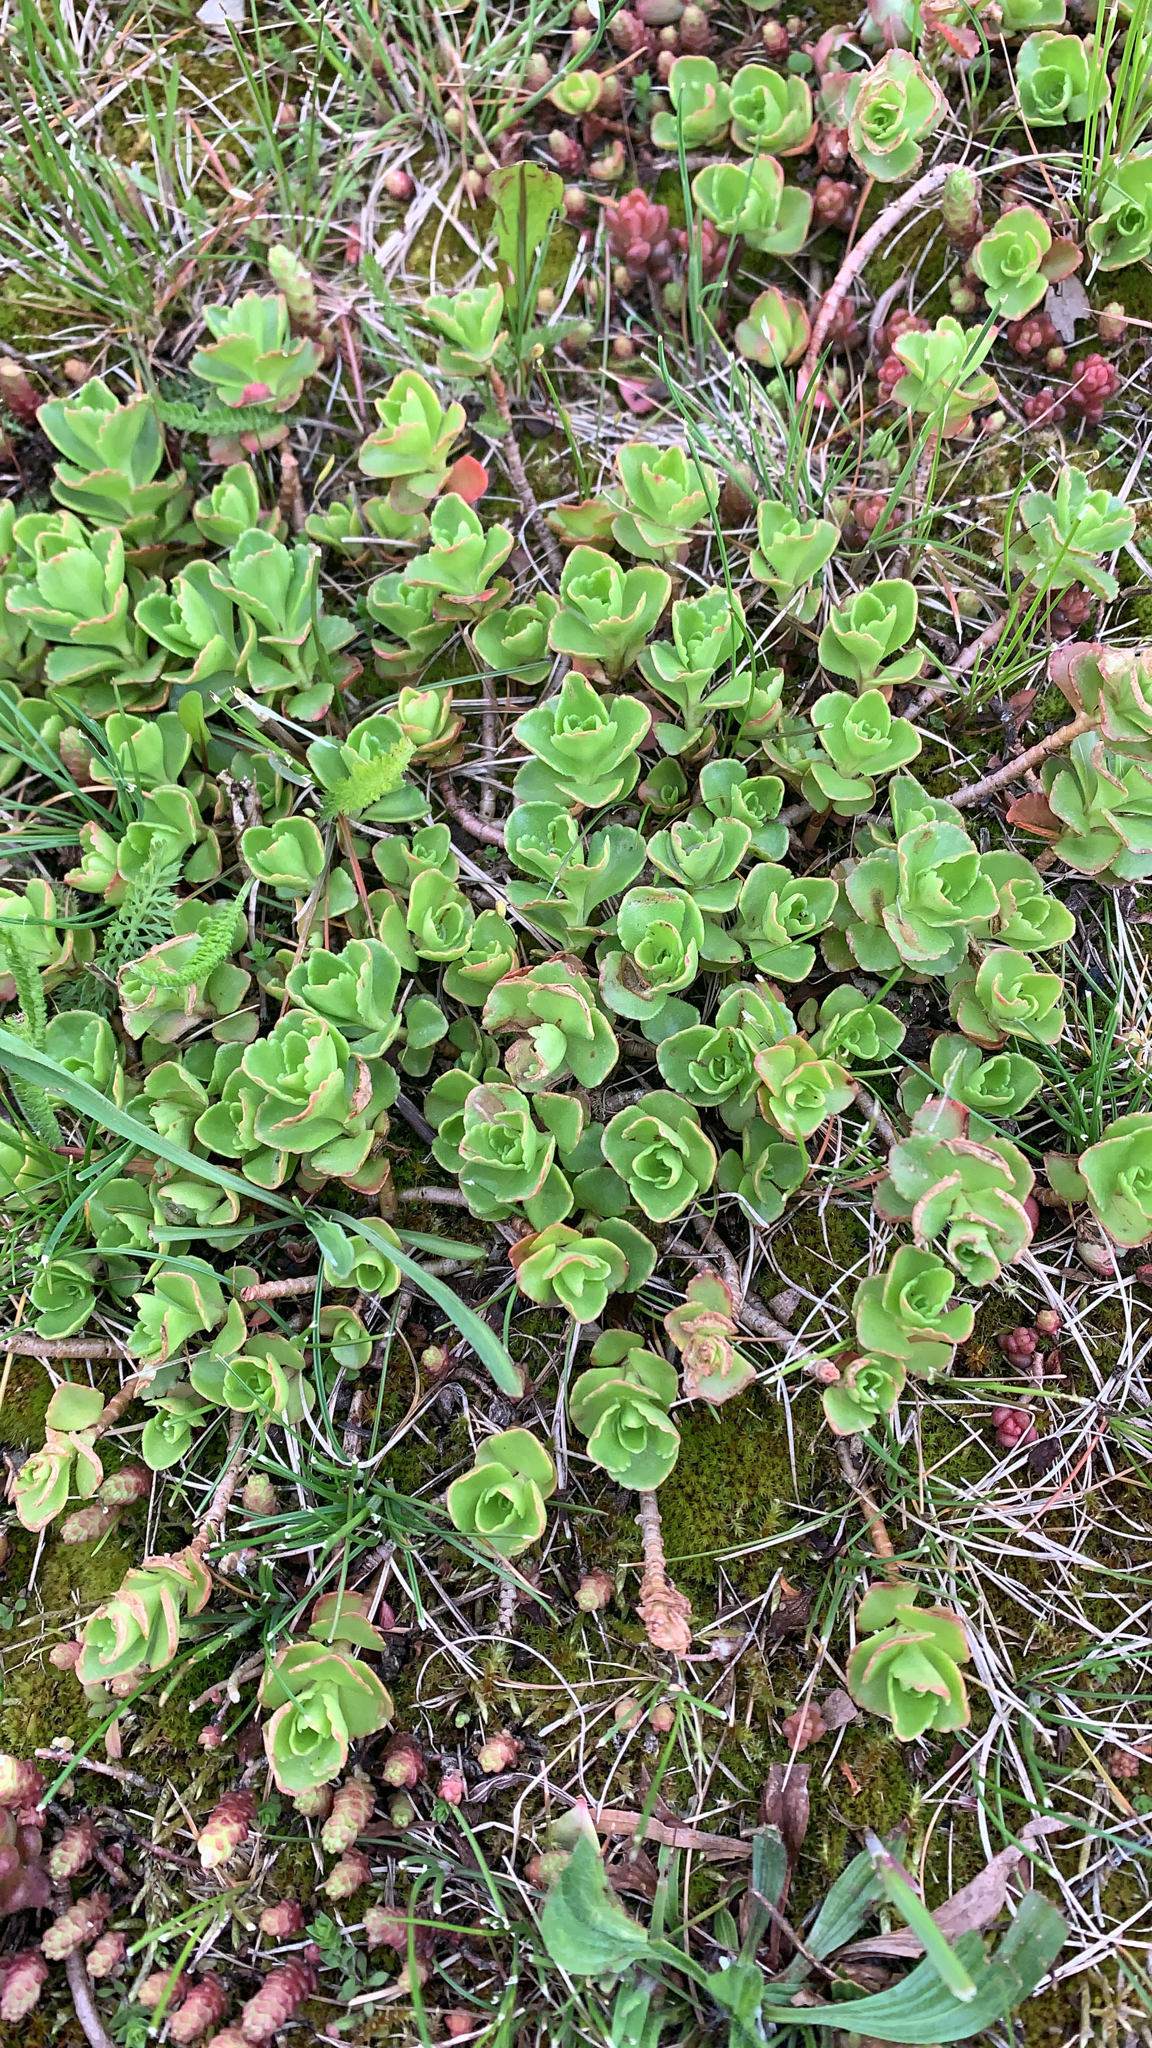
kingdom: Plantae
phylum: Tracheophyta
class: Magnoliopsida
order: Saxifragales
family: Crassulaceae
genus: Phedimus
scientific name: Phedimus spurius
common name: Caucasian stonecrop
